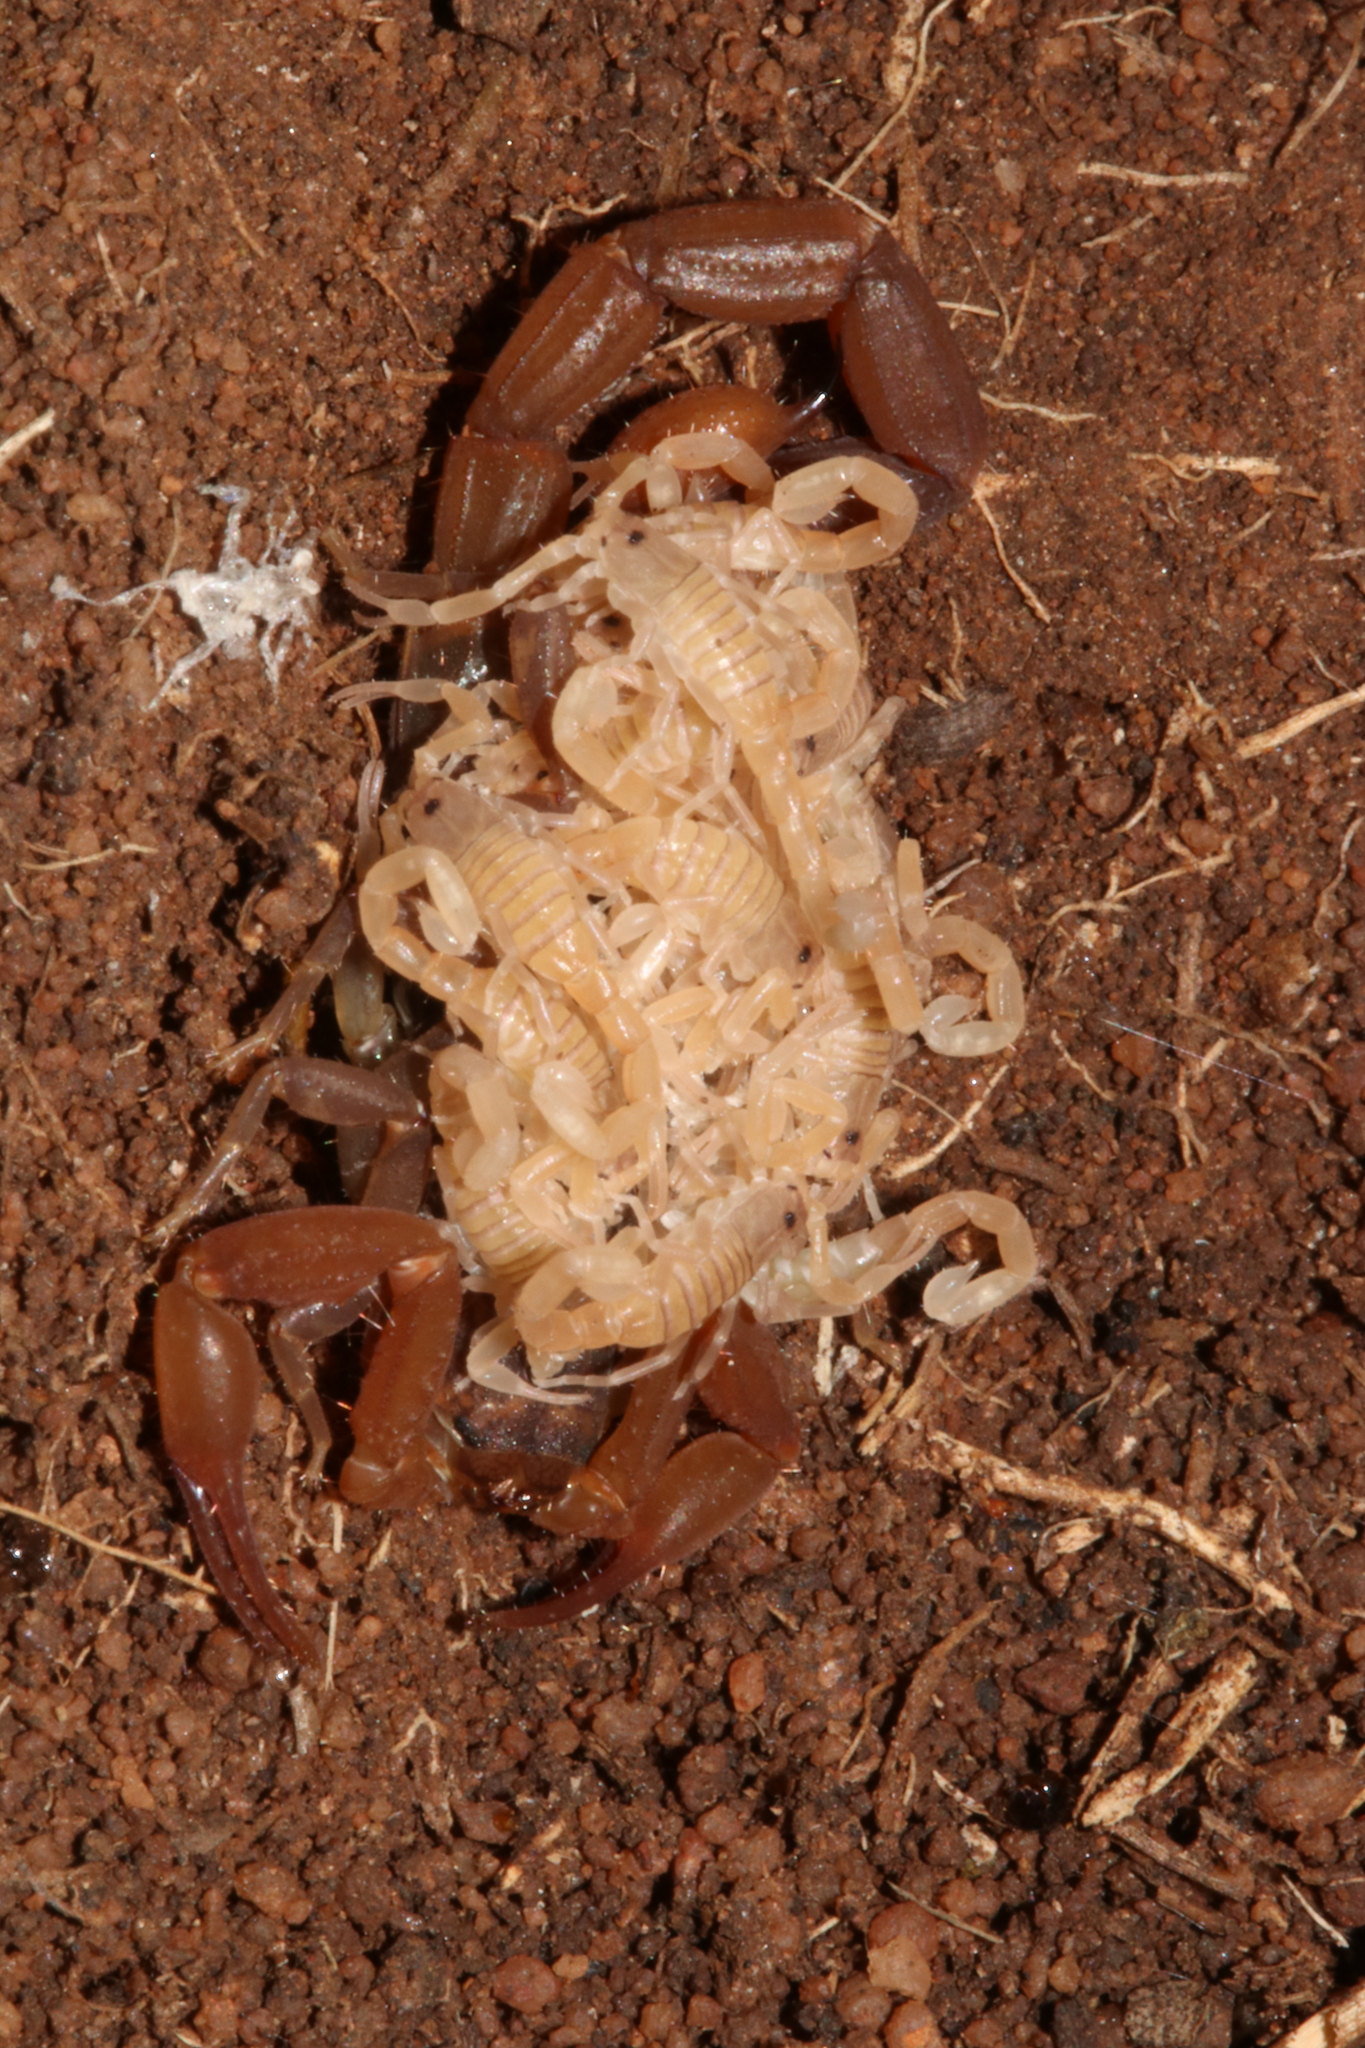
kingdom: Animalia
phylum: Arthropoda
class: Arachnida
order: Scorpiones
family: Buthidae
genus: Pseudolychas
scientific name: Pseudolychas ochraceus
